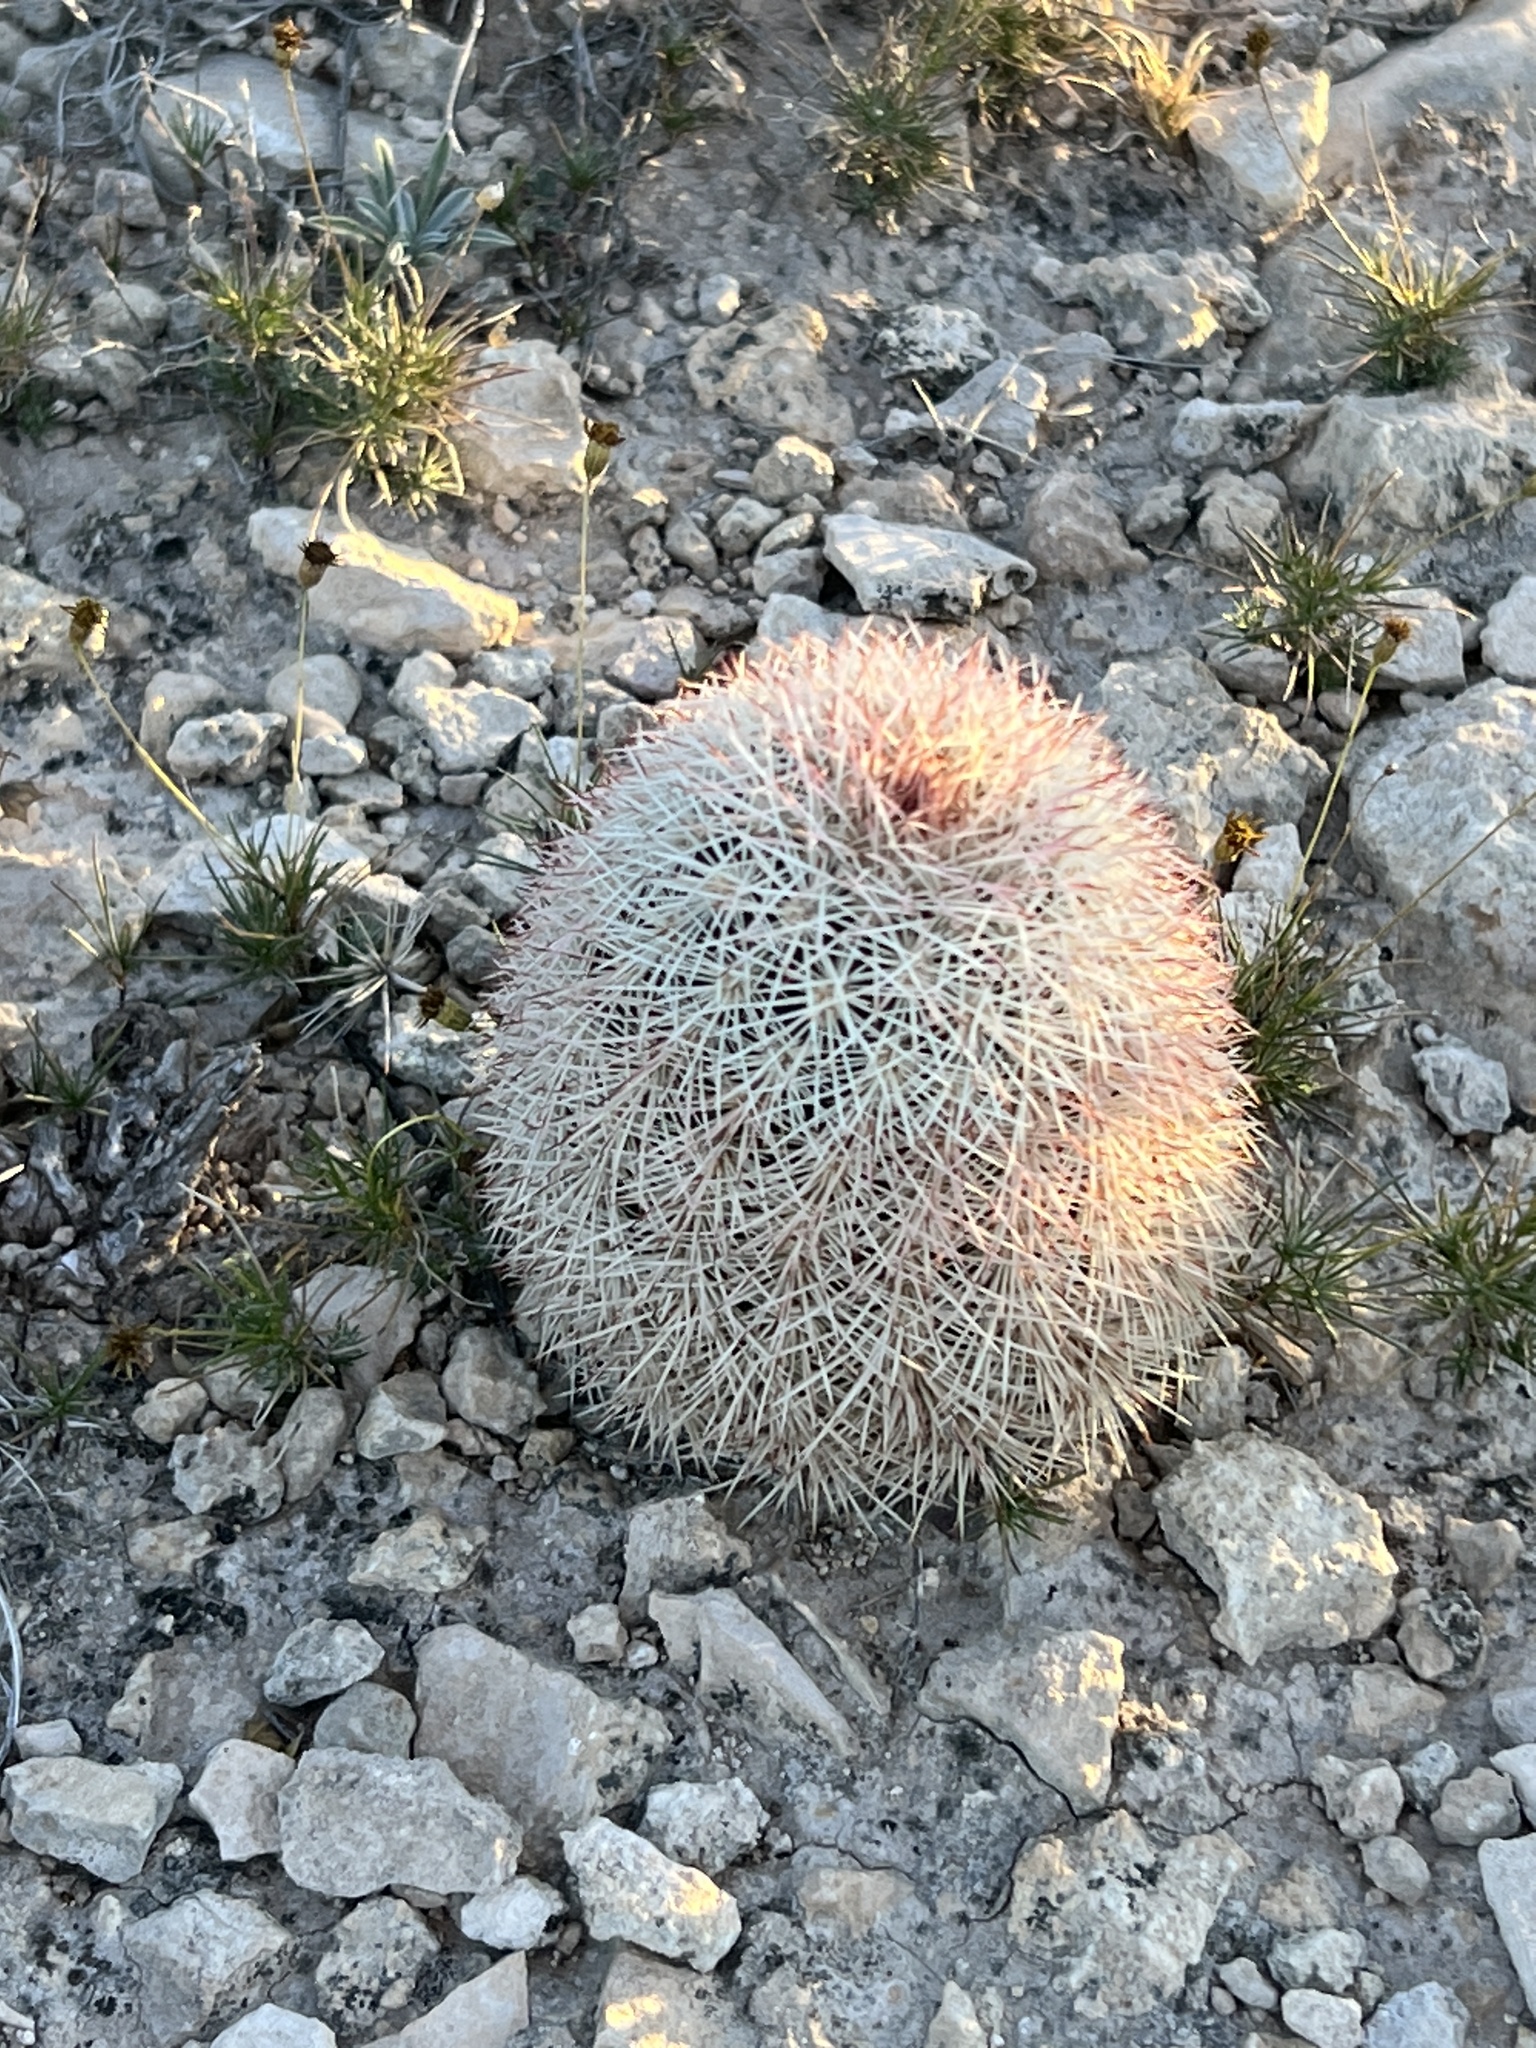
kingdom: Plantae
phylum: Tracheophyta
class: Magnoliopsida
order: Caryophyllales
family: Cactaceae
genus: Echinocereus
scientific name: Echinocereus dasyacanthus
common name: Spiny hedgehog cactus
